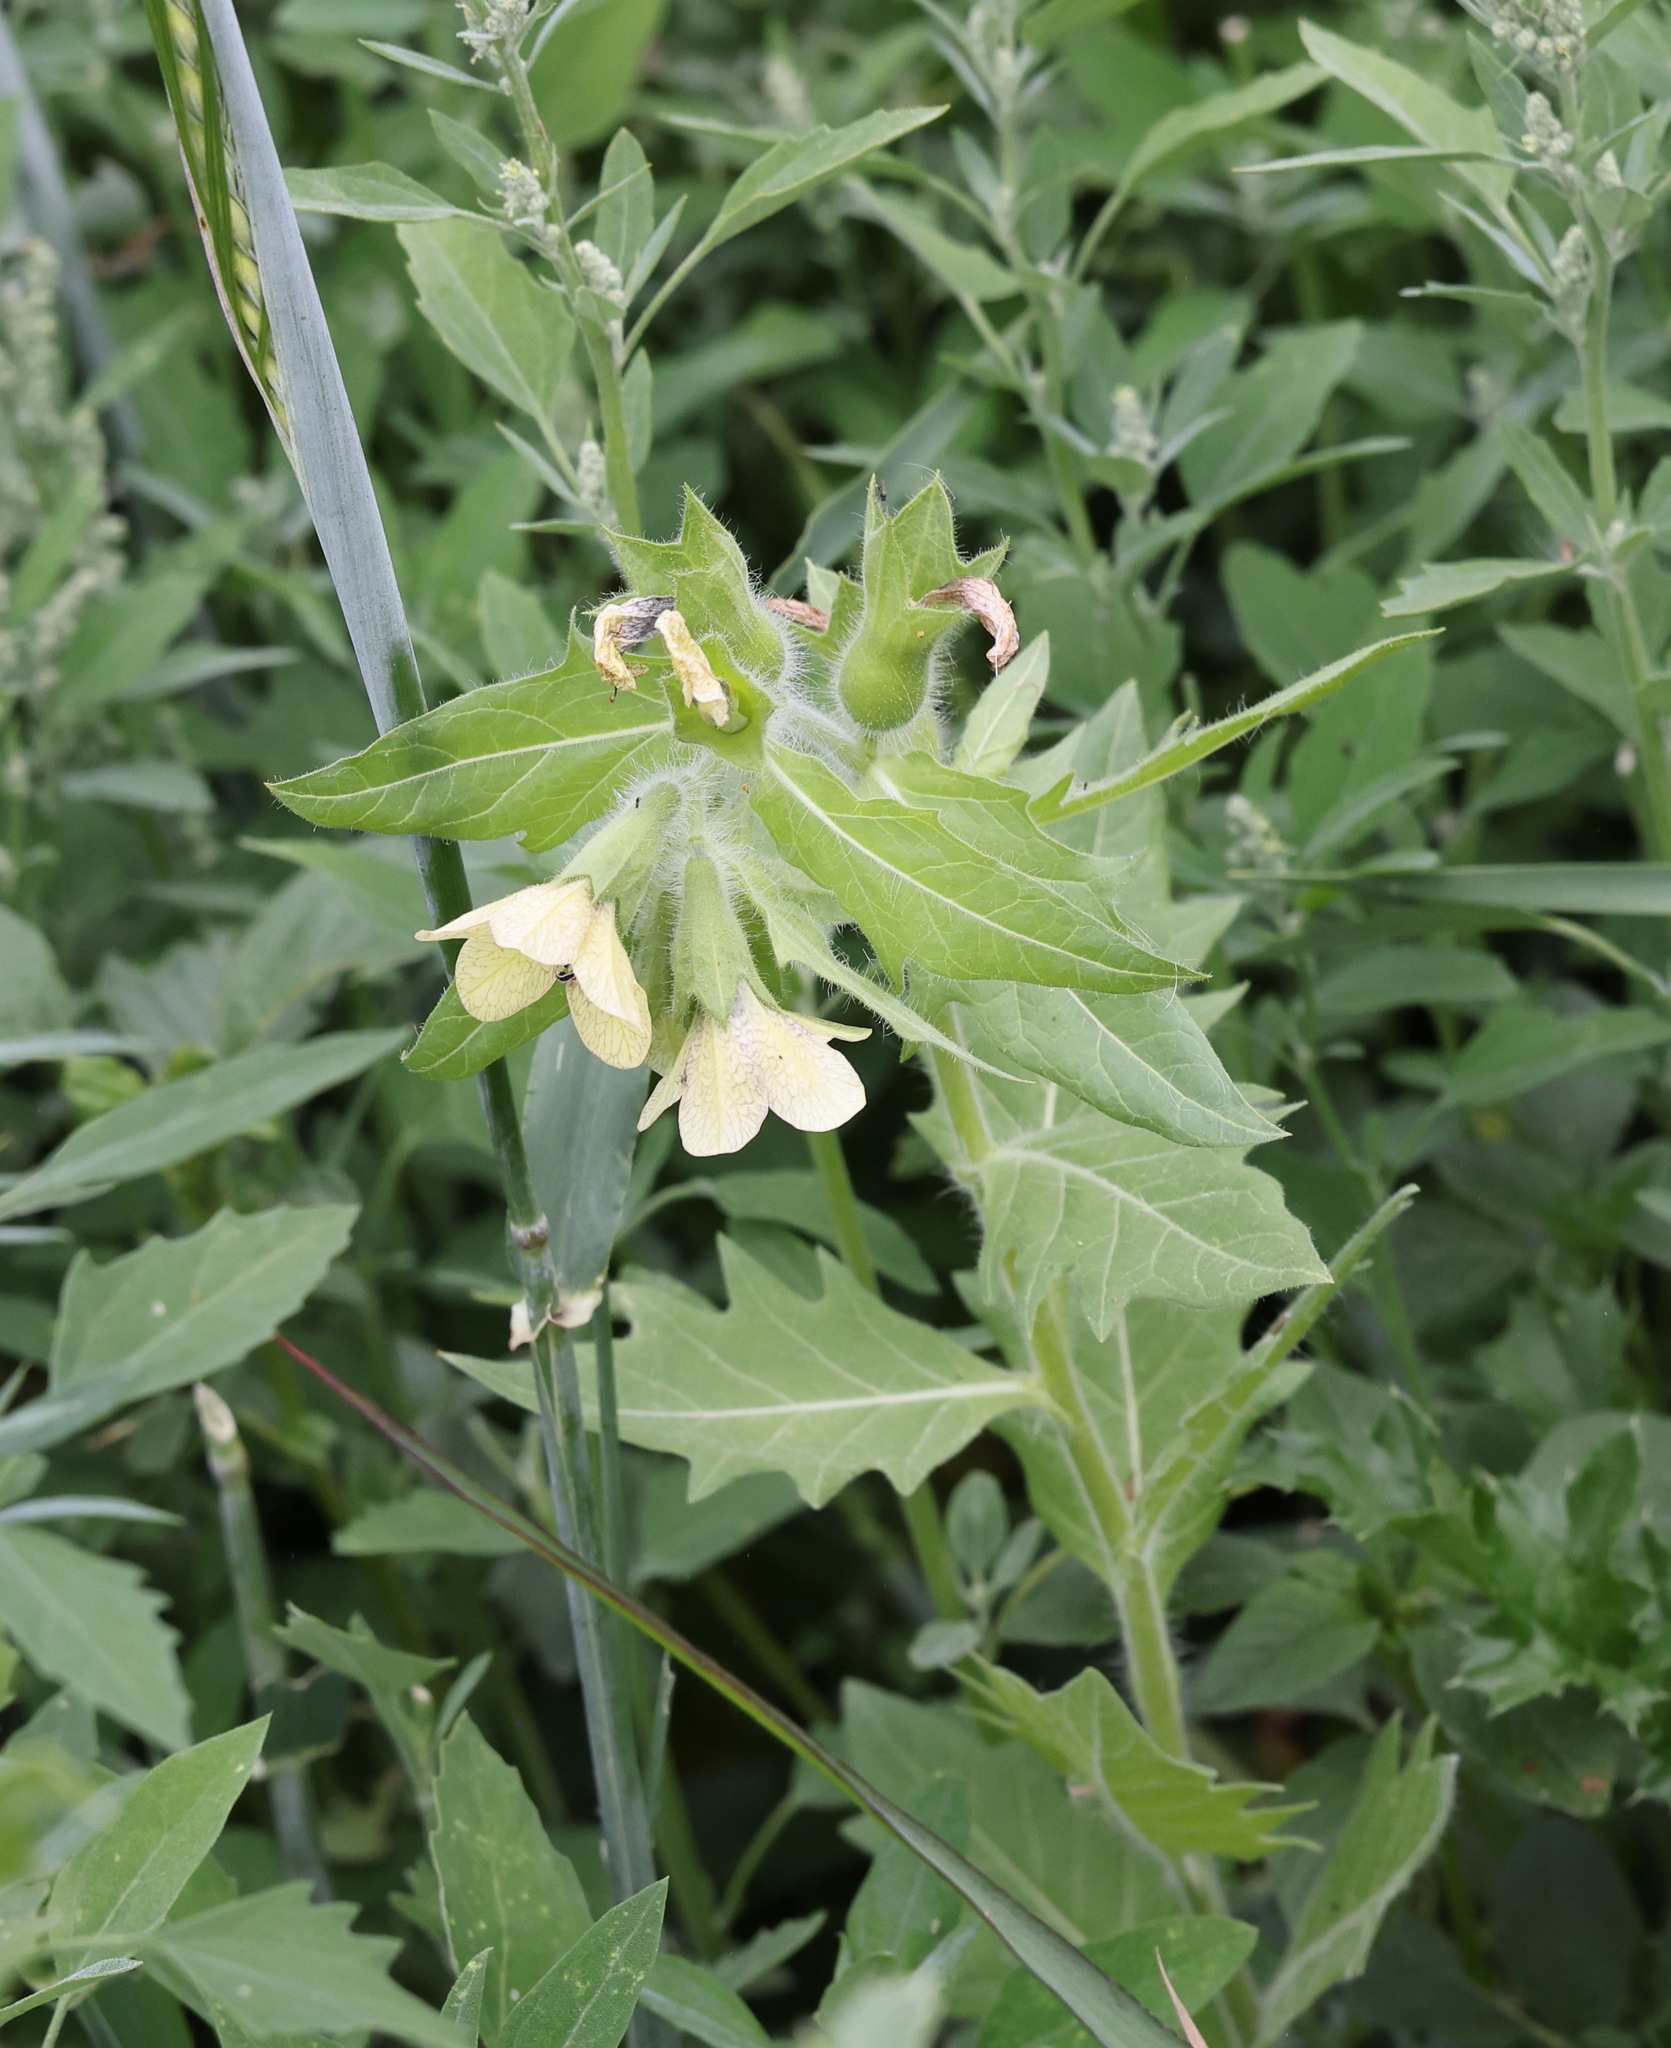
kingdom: Plantae
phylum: Tracheophyta
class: Magnoliopsida
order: Solanales
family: Solanaceae
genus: Hyoscyamus
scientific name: Hyoscyamus niger
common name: Henbane
